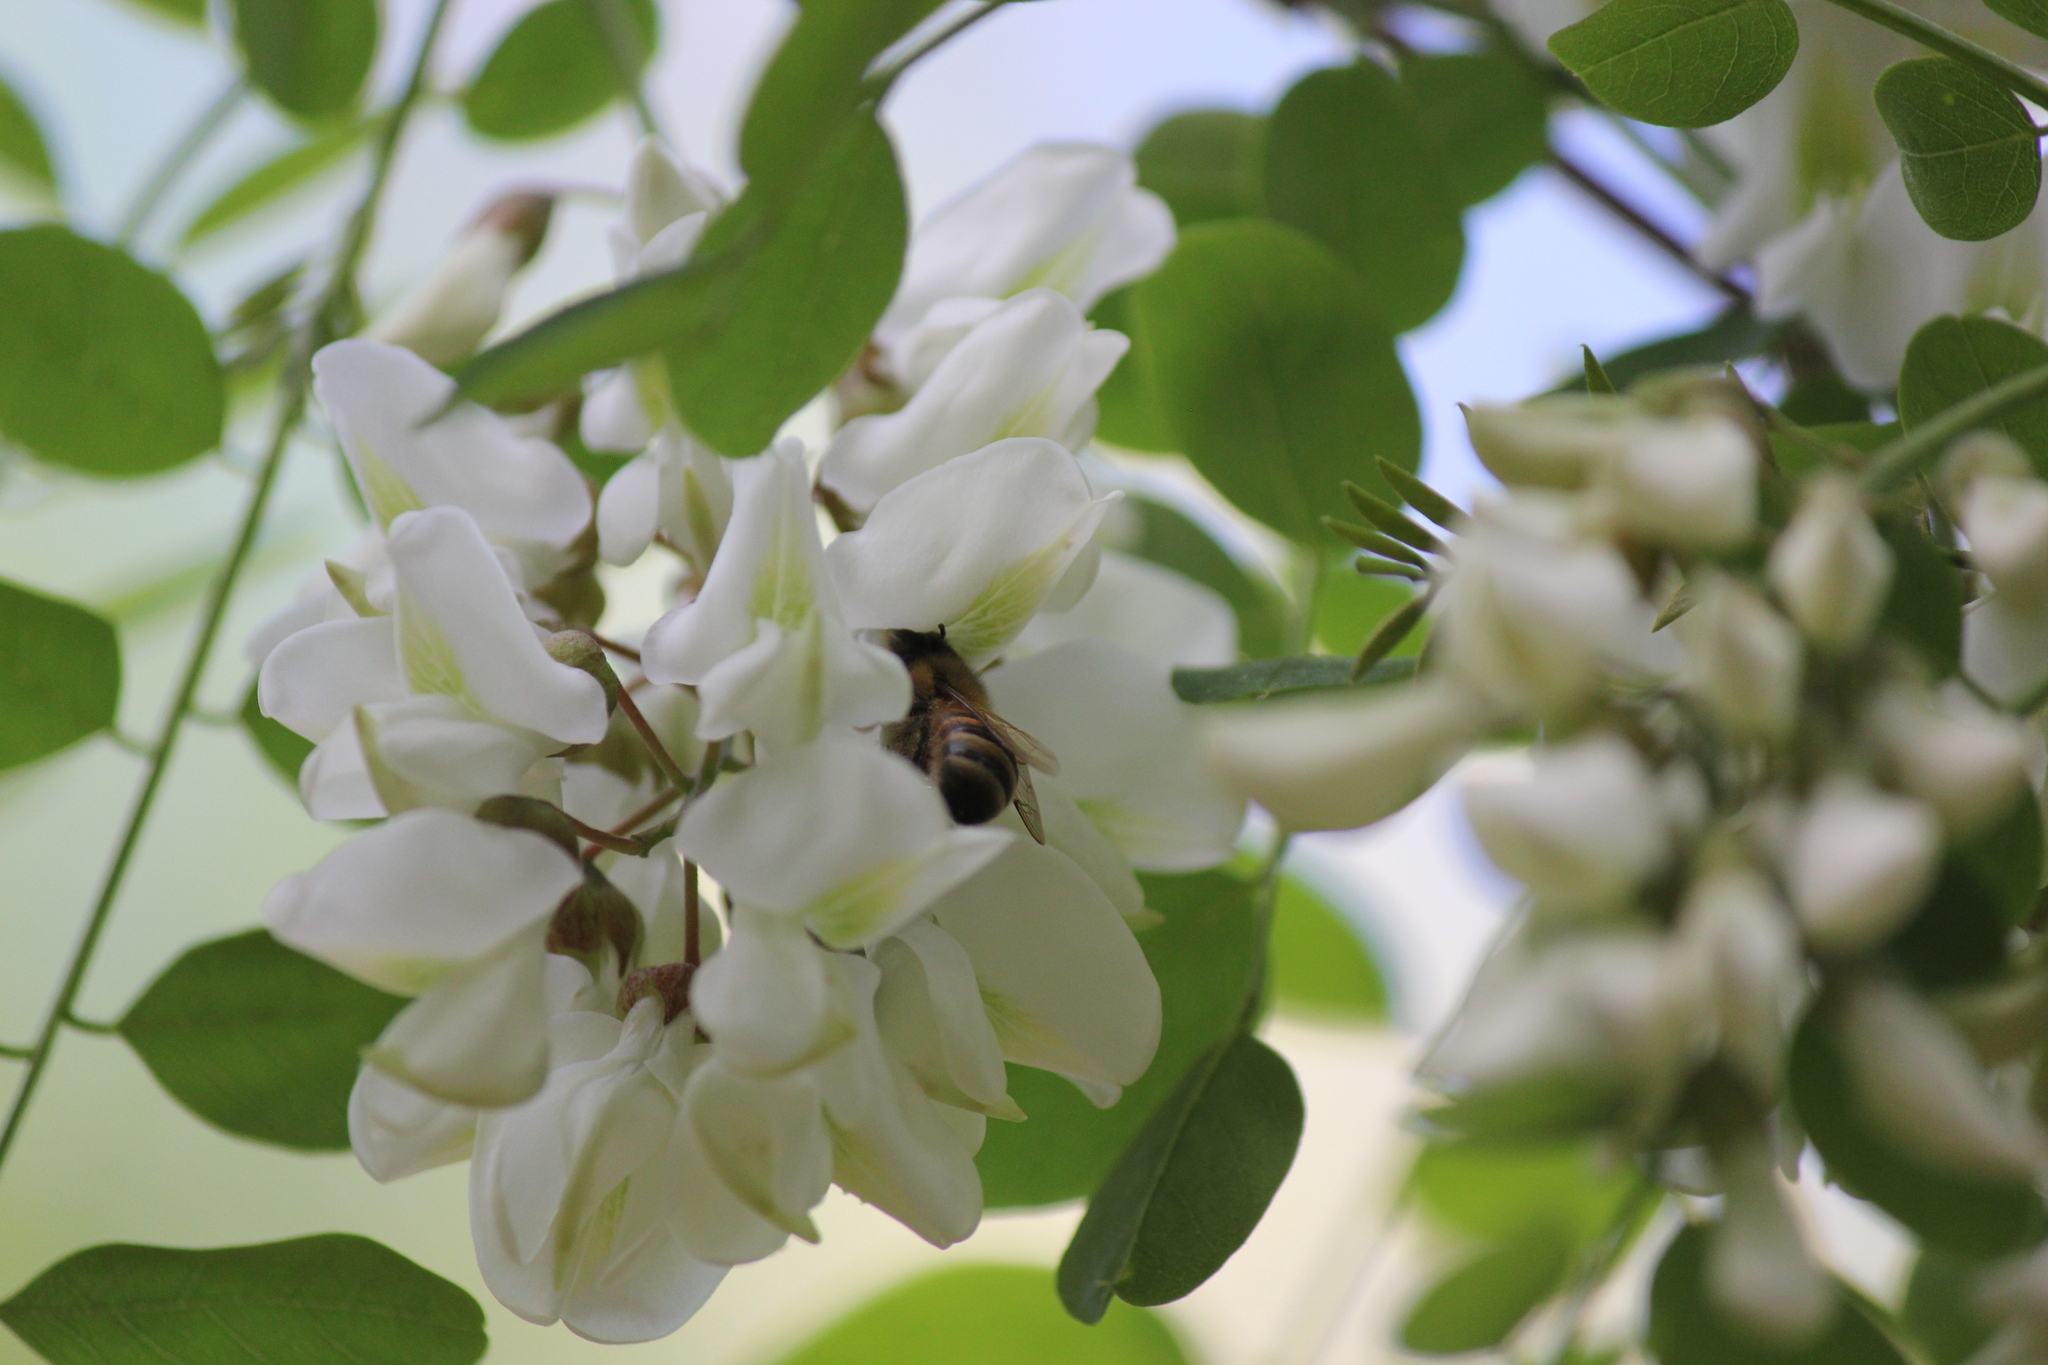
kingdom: Animalia
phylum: Arthropoda
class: Insecta
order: Hymenoptera
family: Apidae
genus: Apis
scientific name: Apis mellifera
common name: Honey bee
